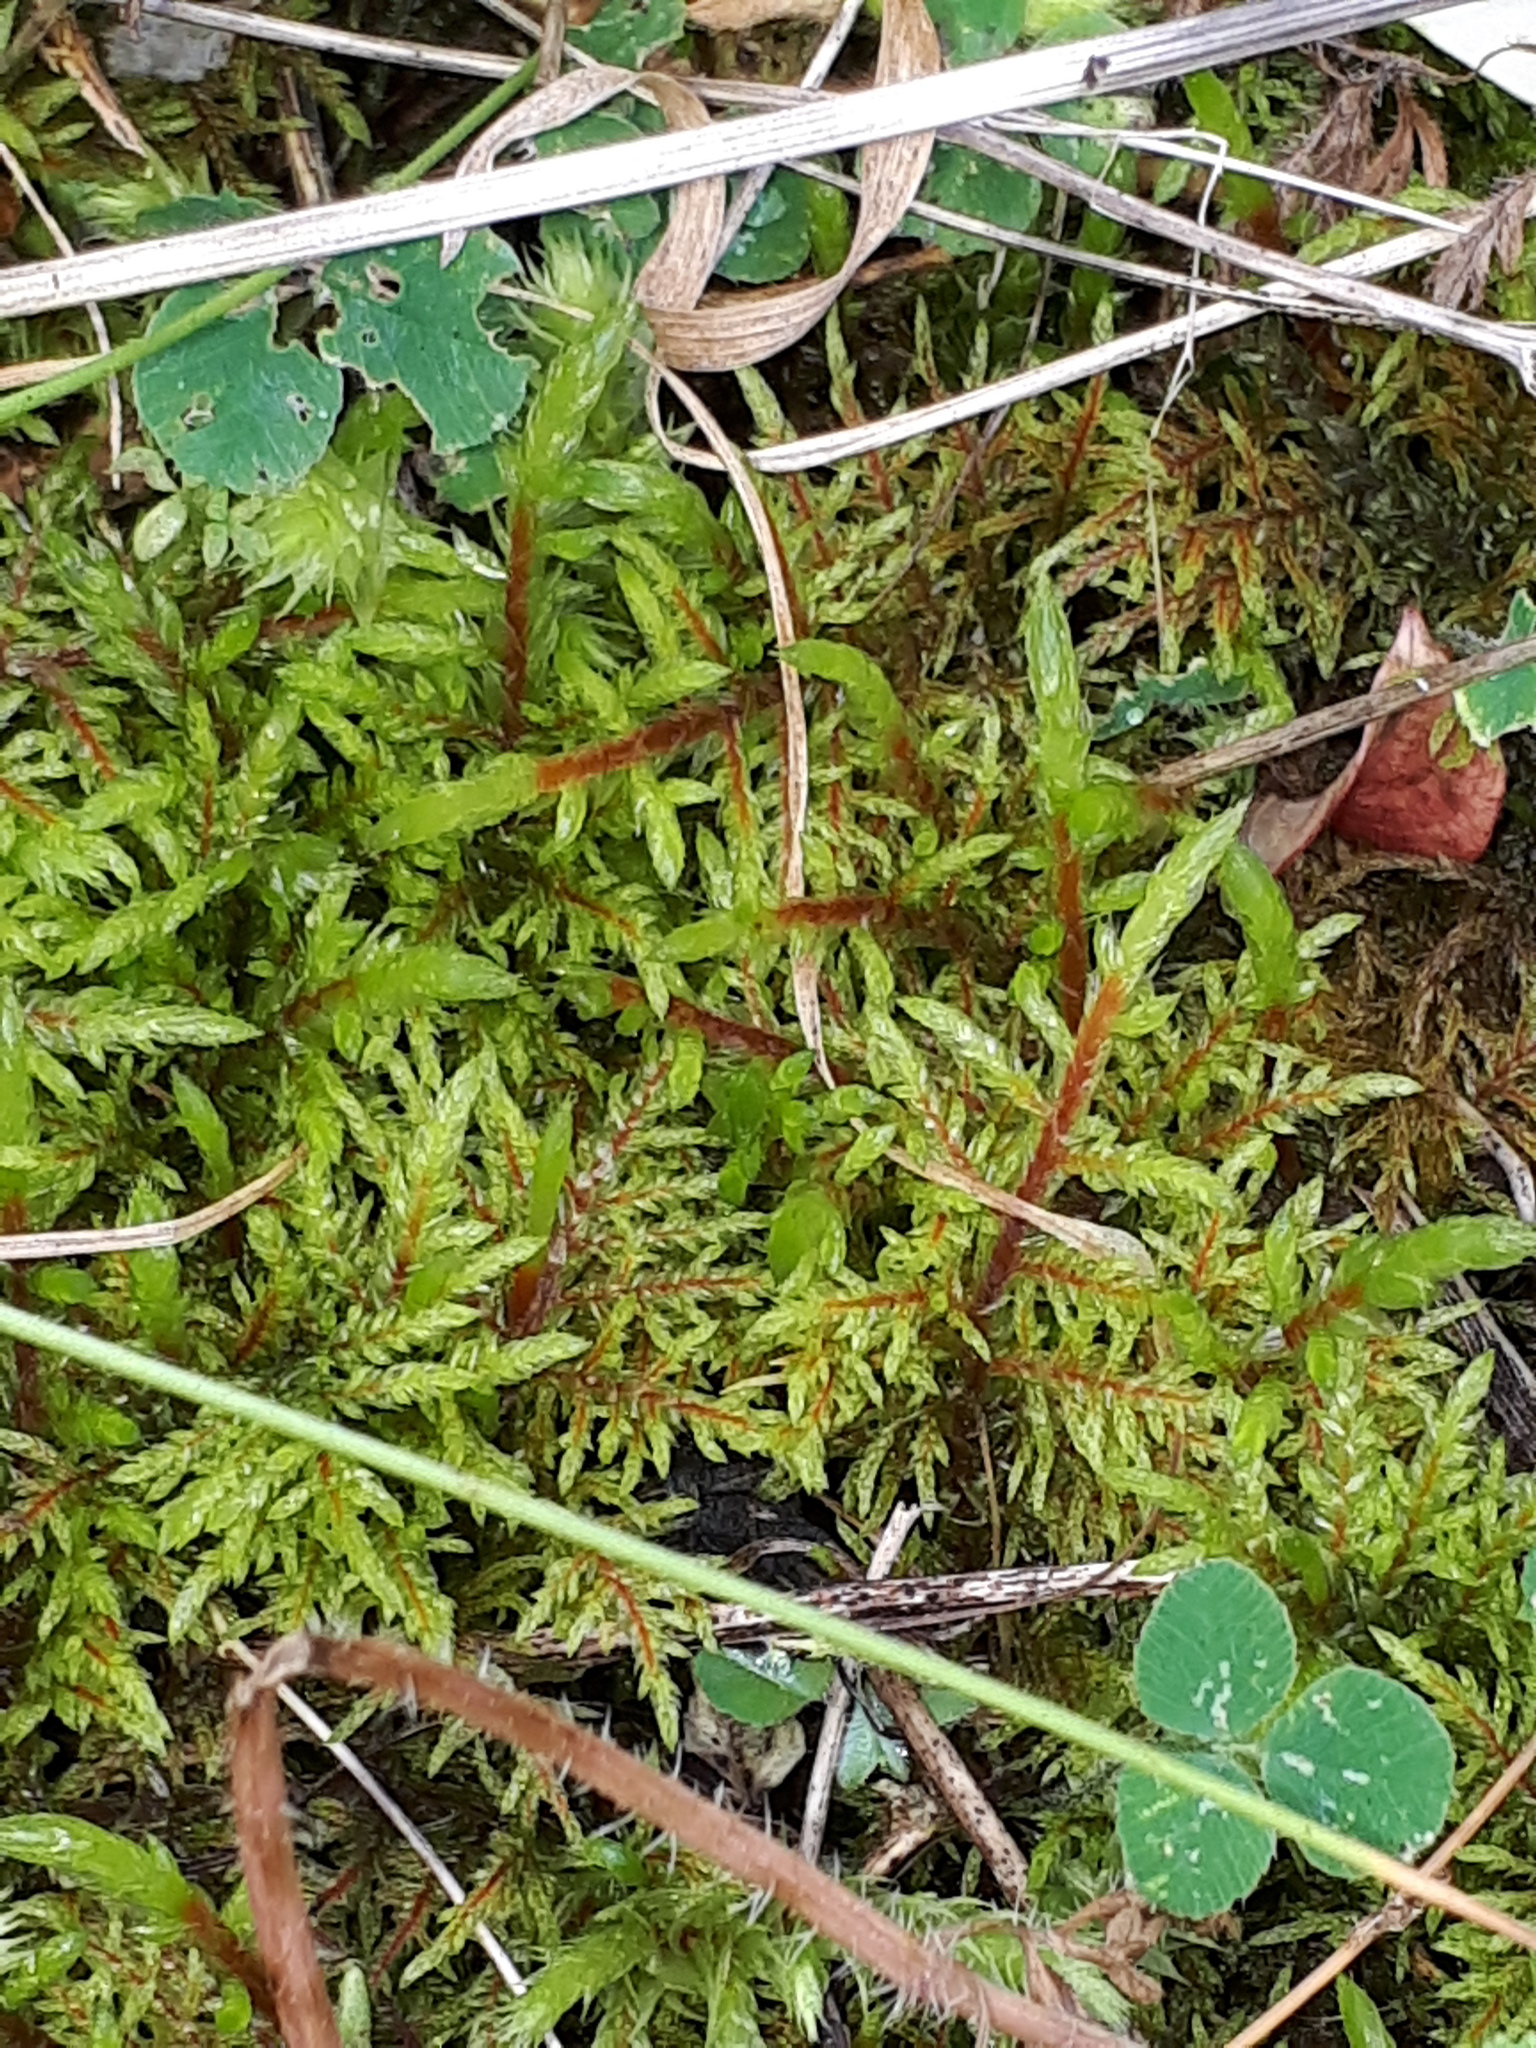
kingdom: Plantae
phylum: Bryophyta
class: Bryopsida
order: Hypnales
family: Hylocomiaceae
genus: Pleurozium
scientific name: Pleurozium schreberi
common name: Red-stemmed feather moss
